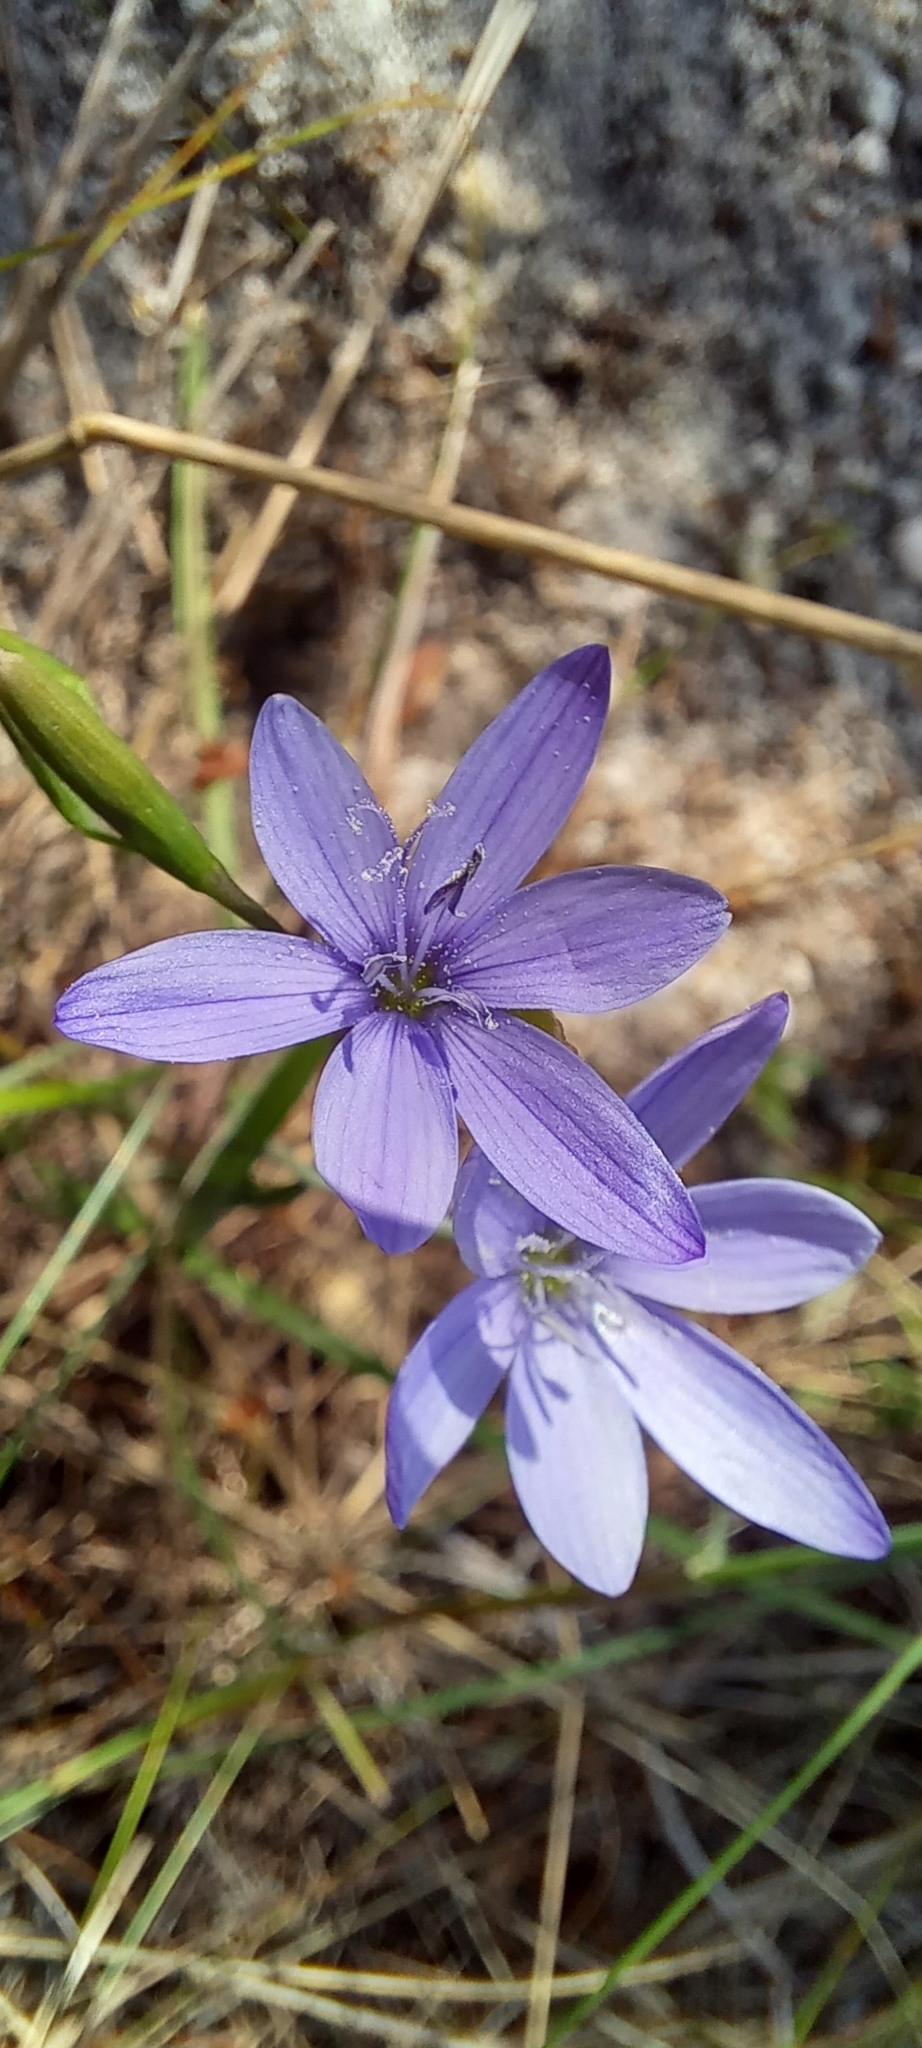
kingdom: Plantae
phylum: Tracheophyta
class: Liliopsida
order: Asparagales
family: Iridaceae
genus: Geissorhiza
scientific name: Geissorhiza aspera
